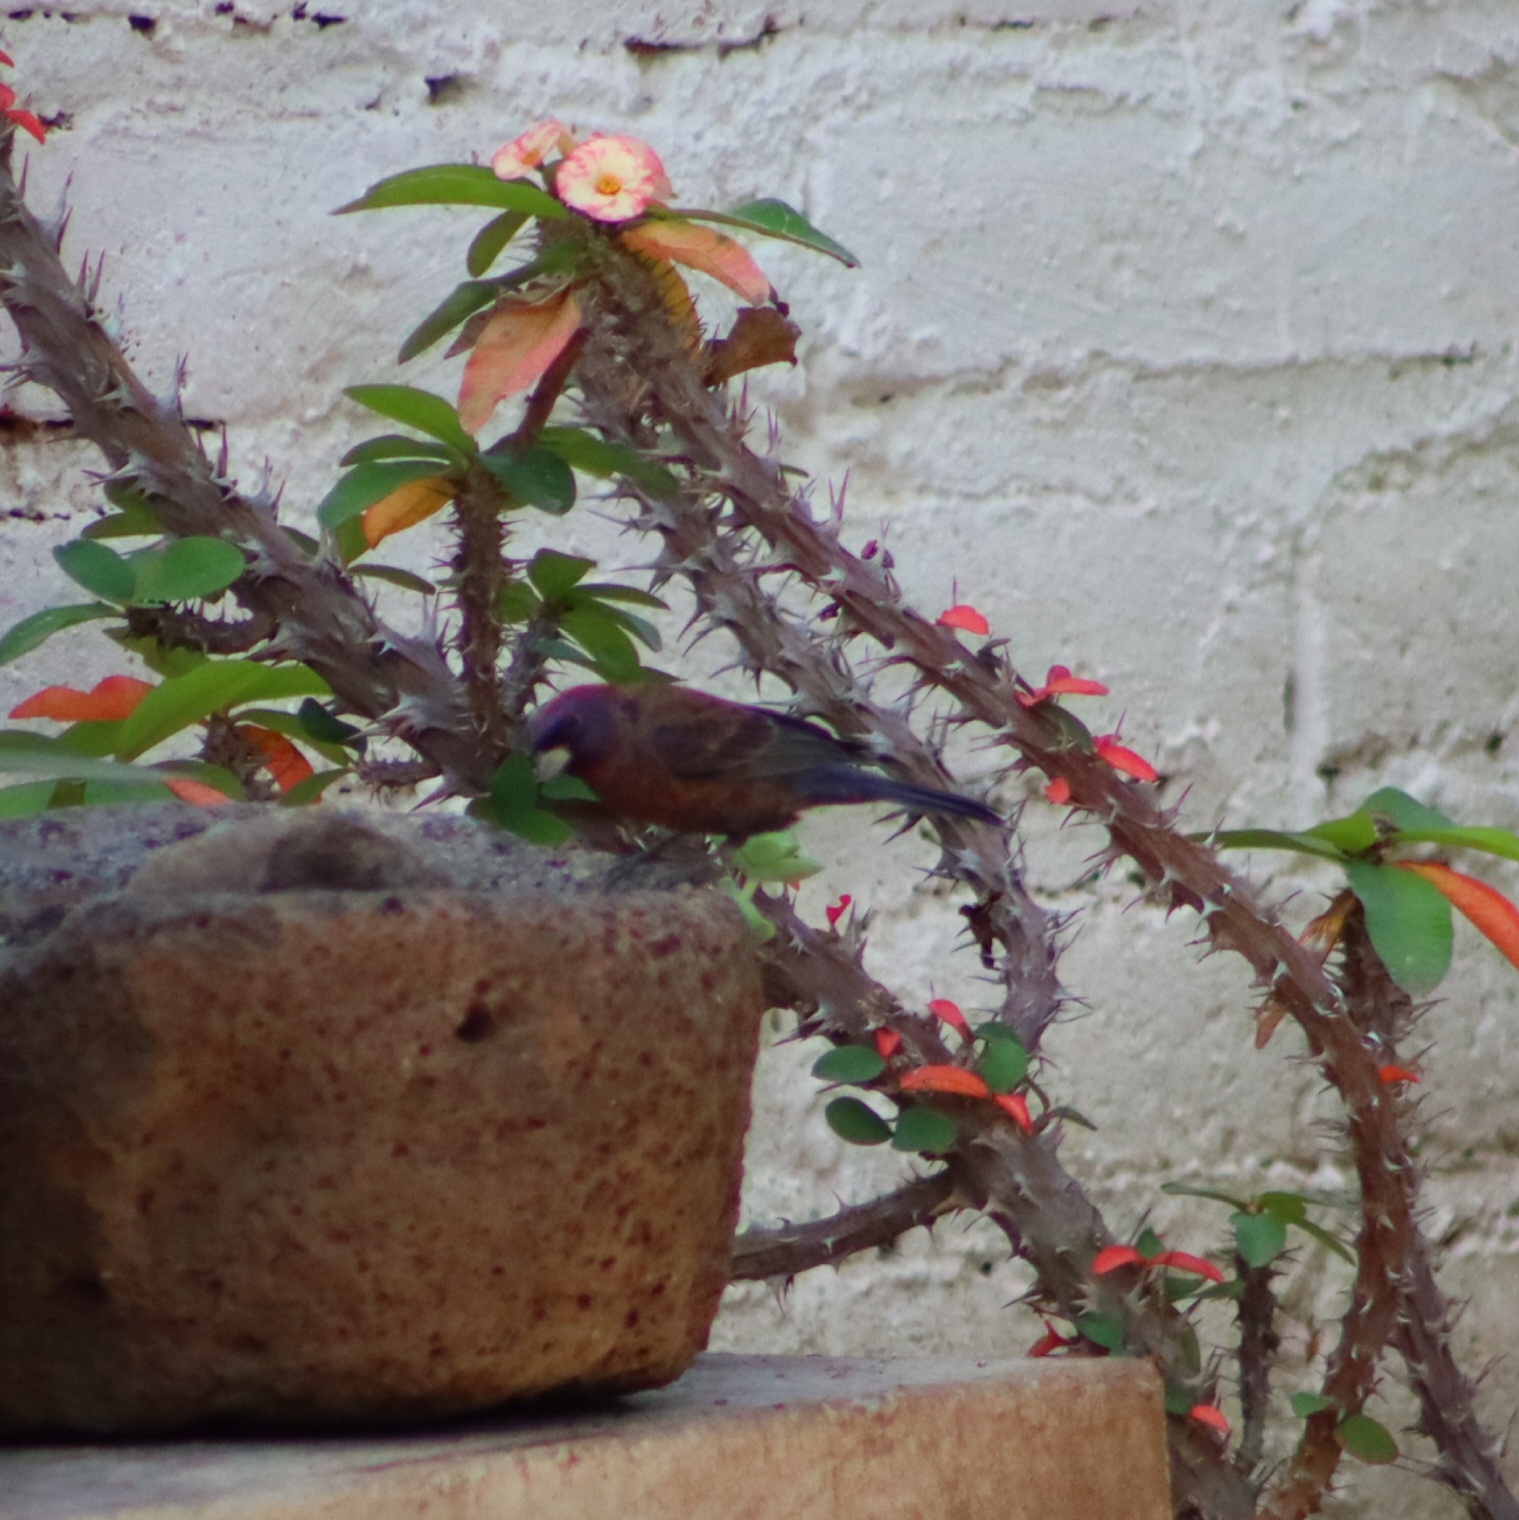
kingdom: Animalia
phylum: Chordata
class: Aves
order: Passeriformes
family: Cardinalidae
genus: Passerina
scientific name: Passerina versicolor
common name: Varied bunting
